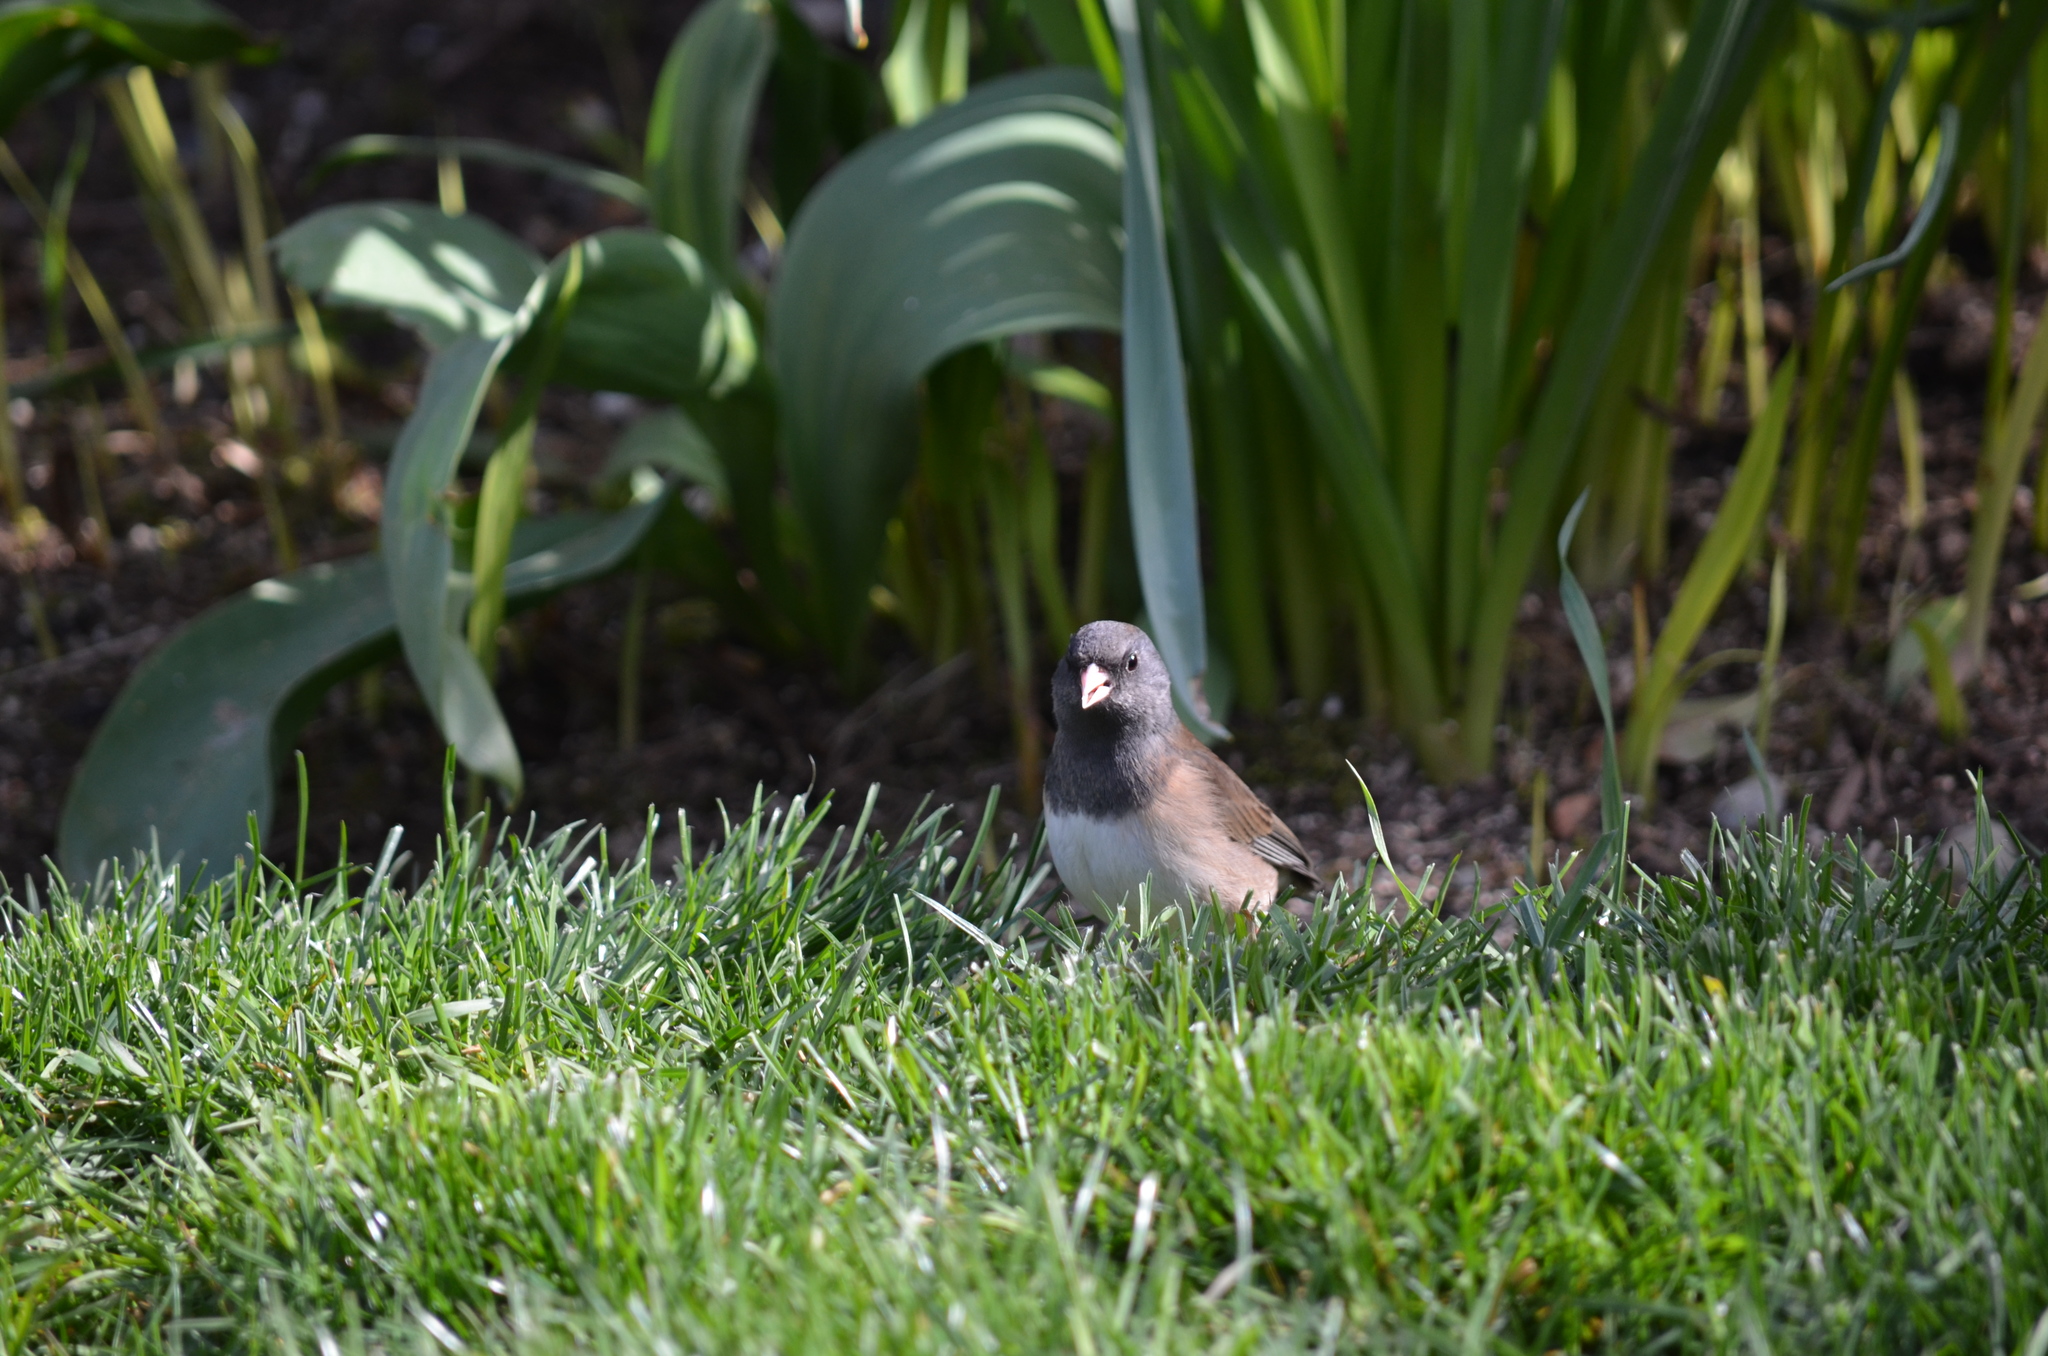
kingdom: Animalia
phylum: Chordata
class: Aves
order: Passeriformes
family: Passerellidae
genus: Junco
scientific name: Junco hyemalis
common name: Dark-eyed junco
